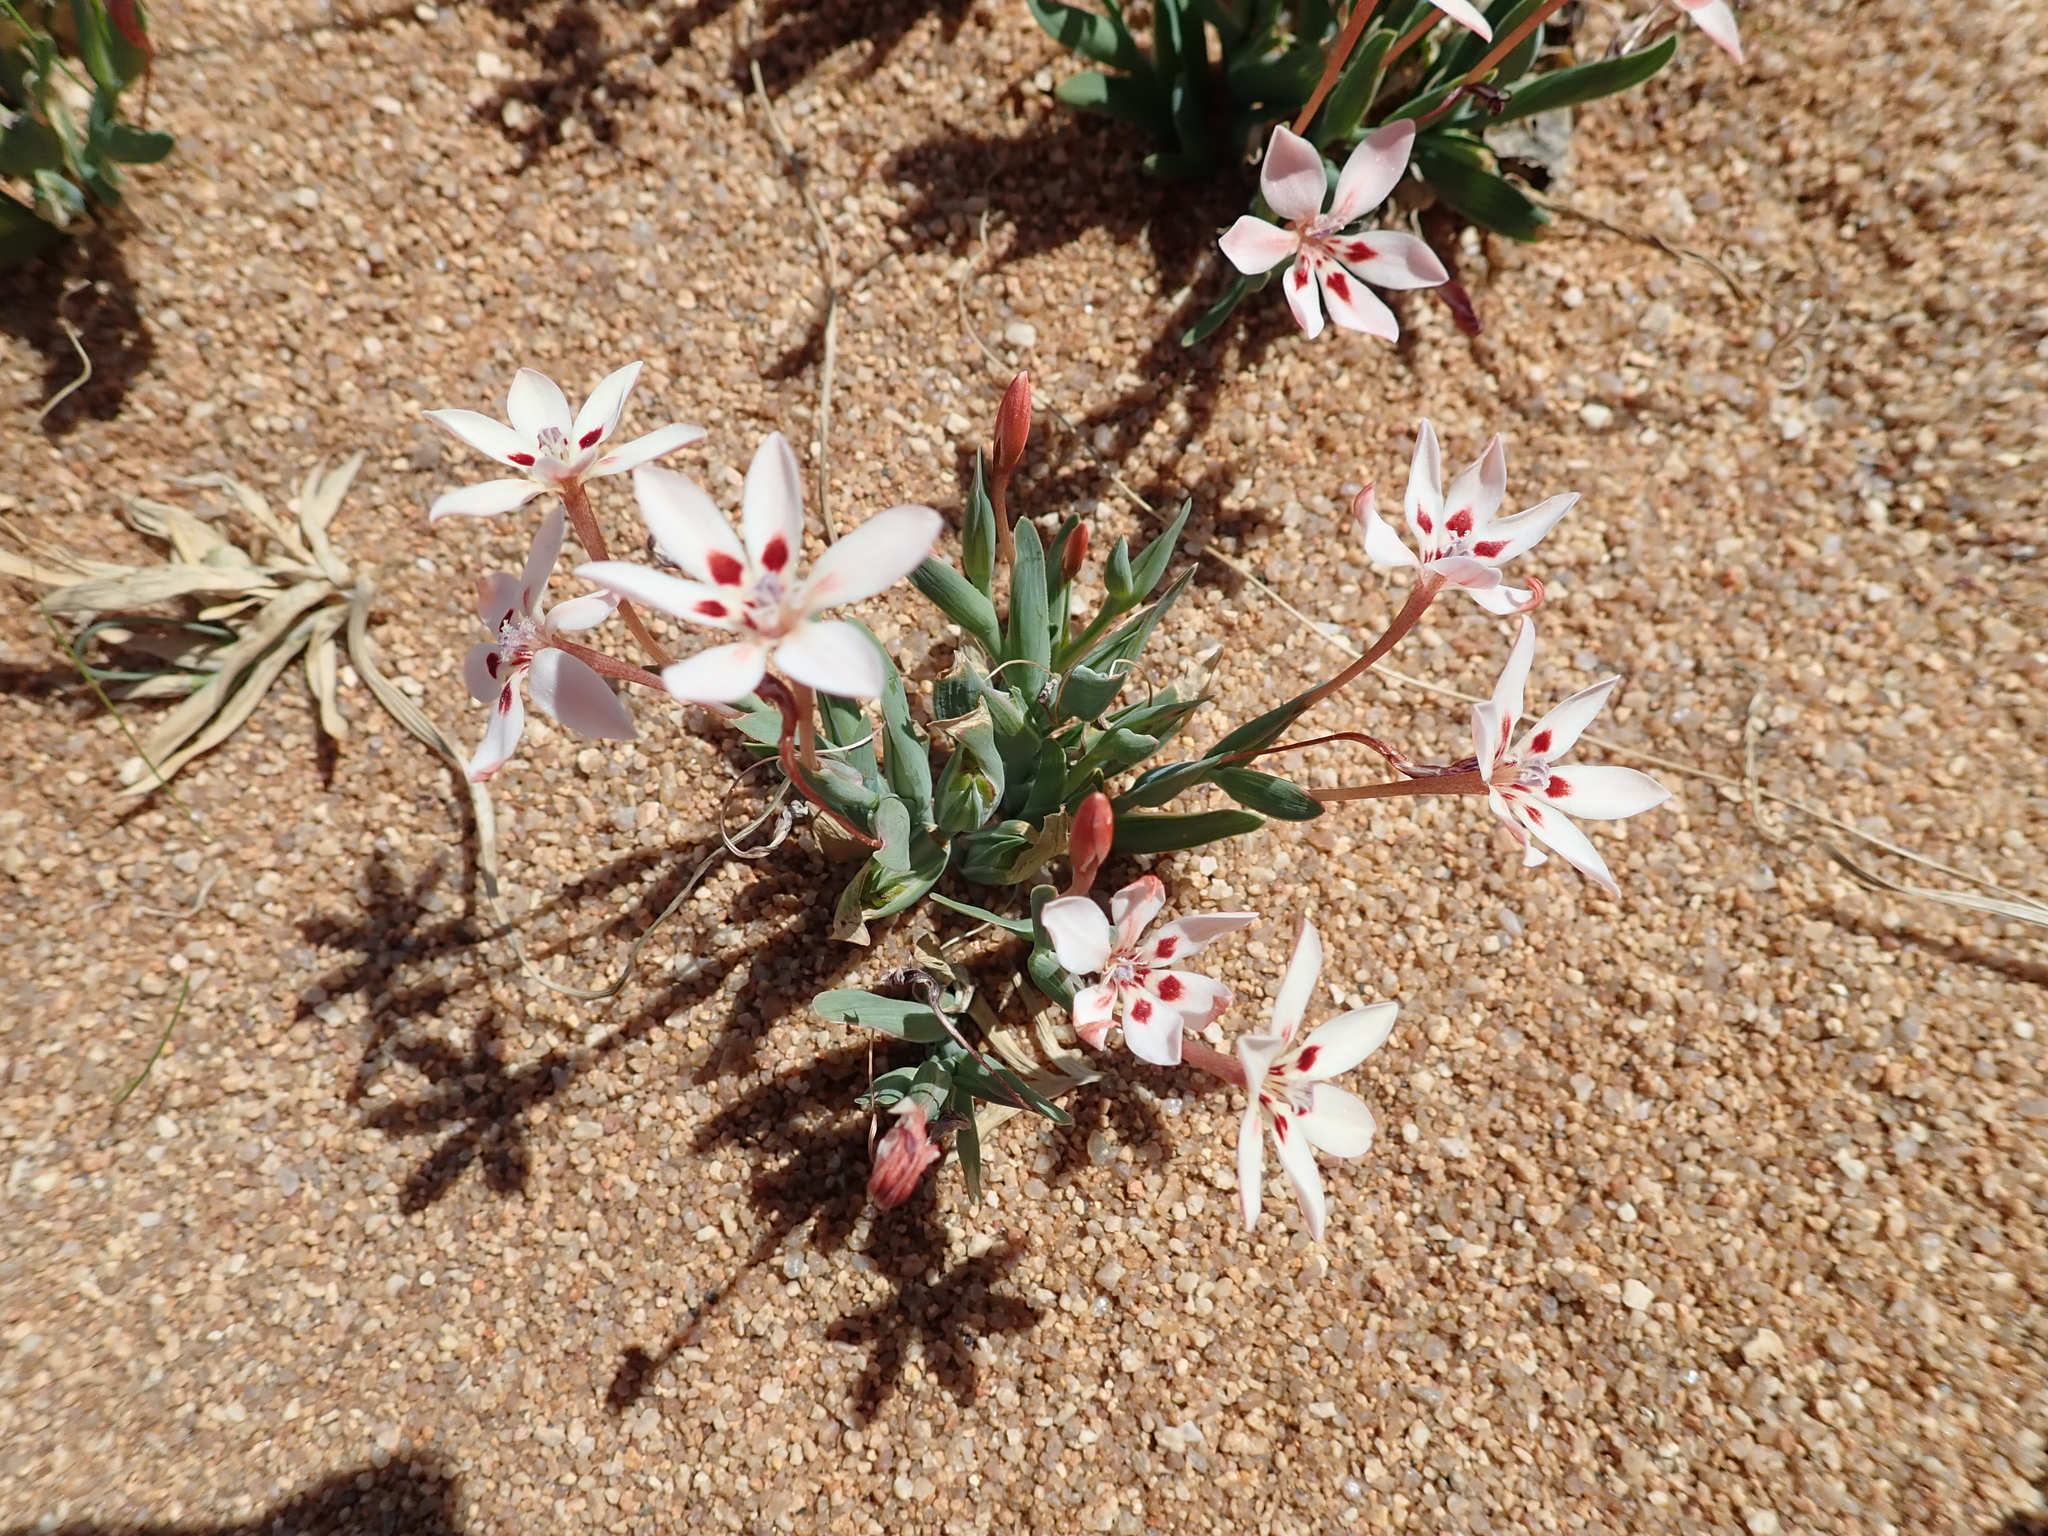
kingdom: Plantae
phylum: Tracheophyta
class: Liliopsida
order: Asparagales
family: Iridaceae
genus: Lapeirousia
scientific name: Lapeirousia arenicola
